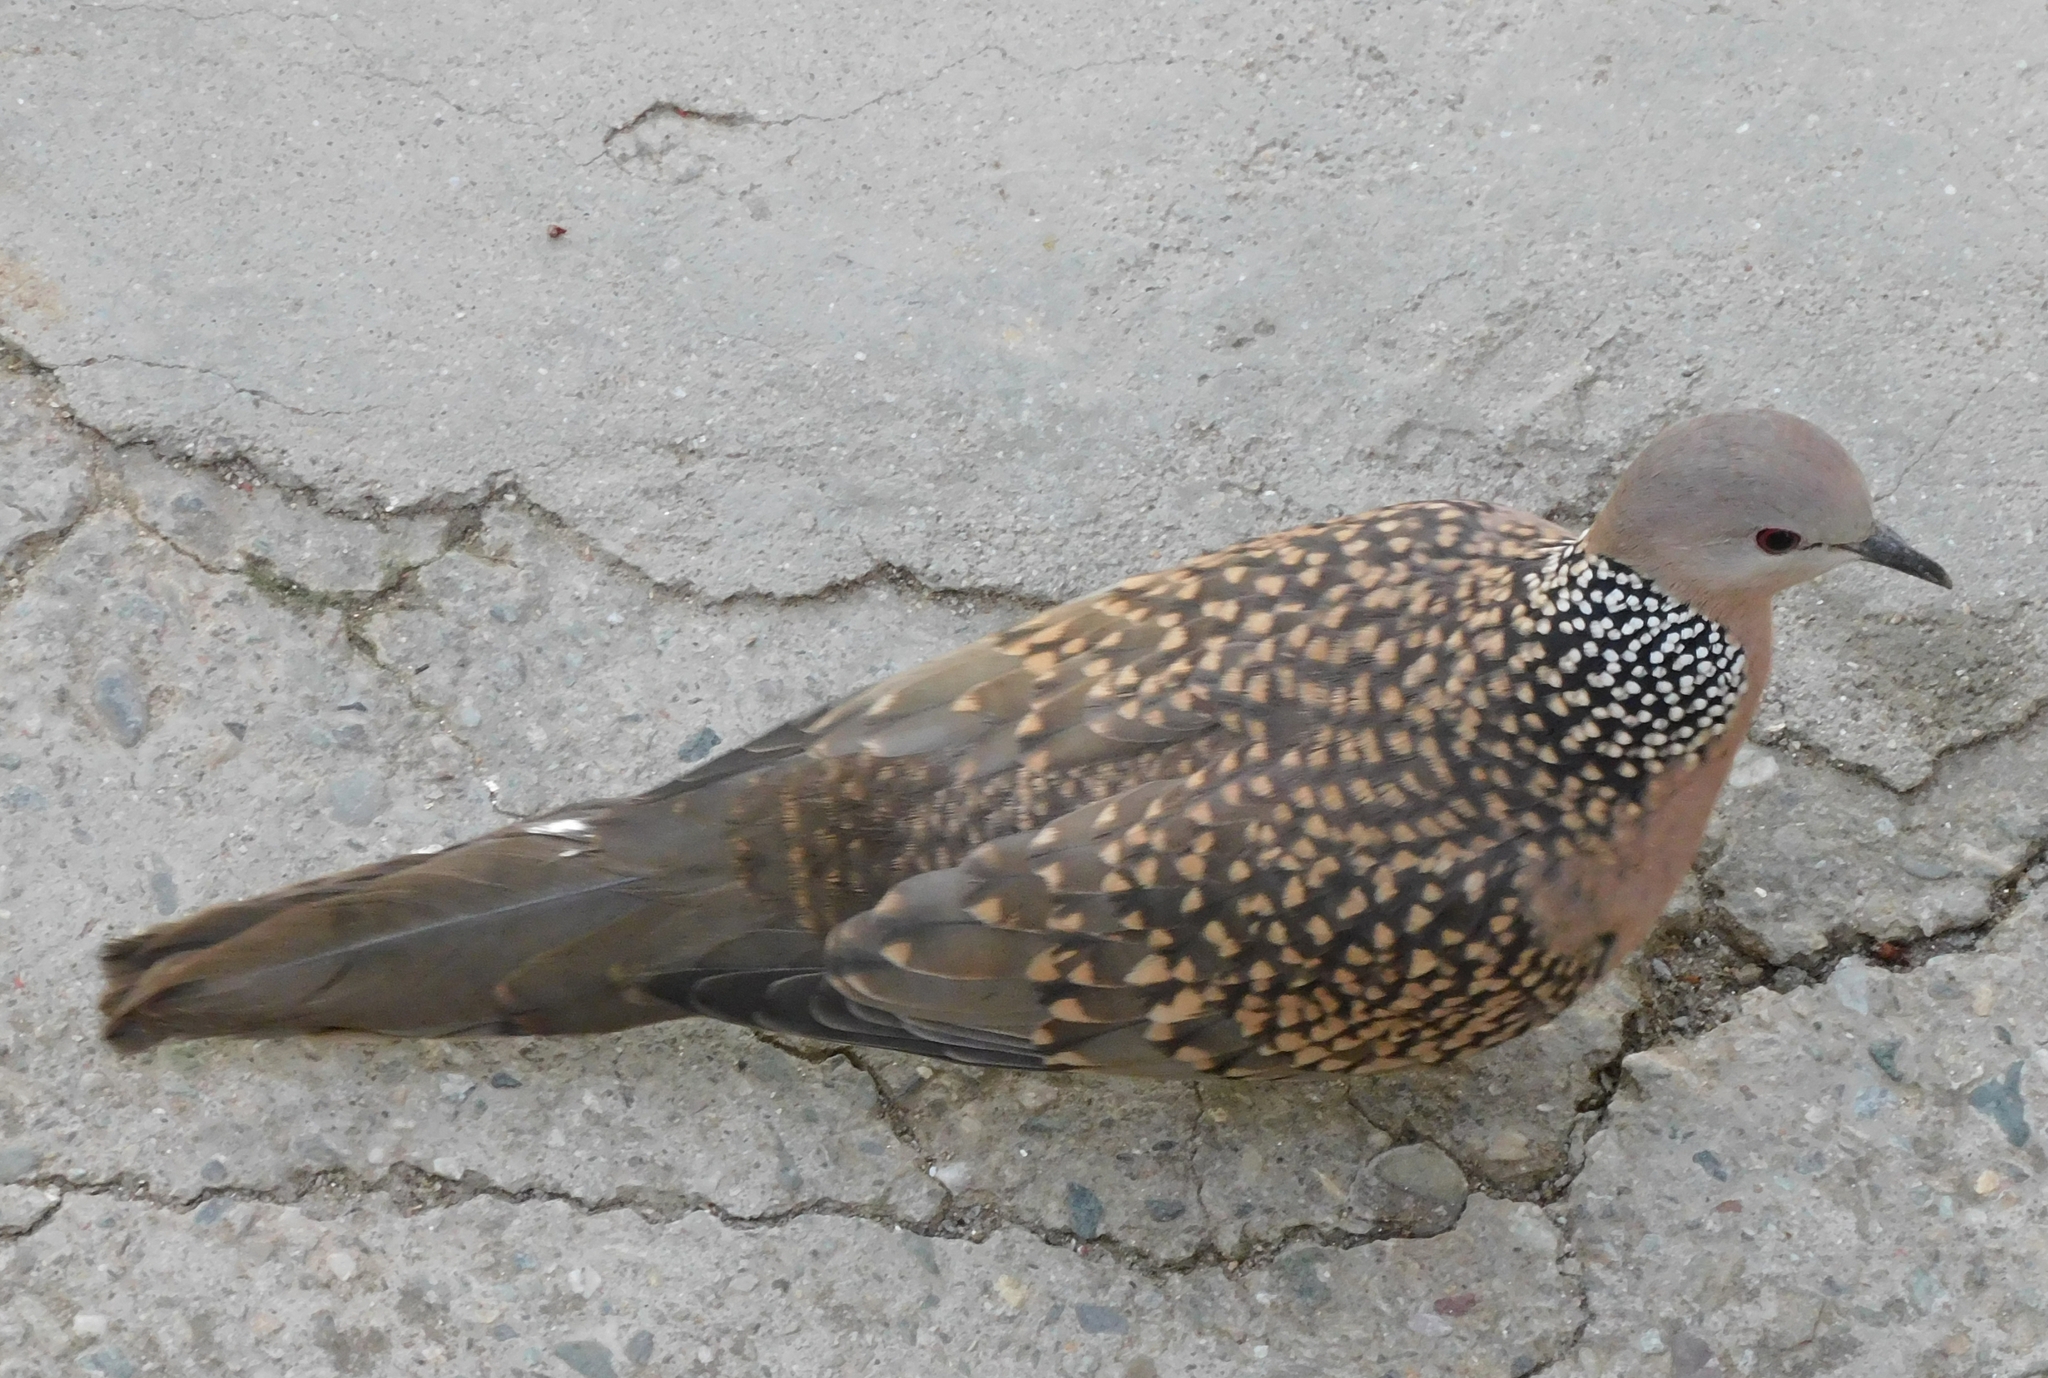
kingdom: Animalia
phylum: Chordata
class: Aves
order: Columbiformes
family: Columbidae
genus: Spilopelia
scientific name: Spilopelia chinensis
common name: Spotted dove
